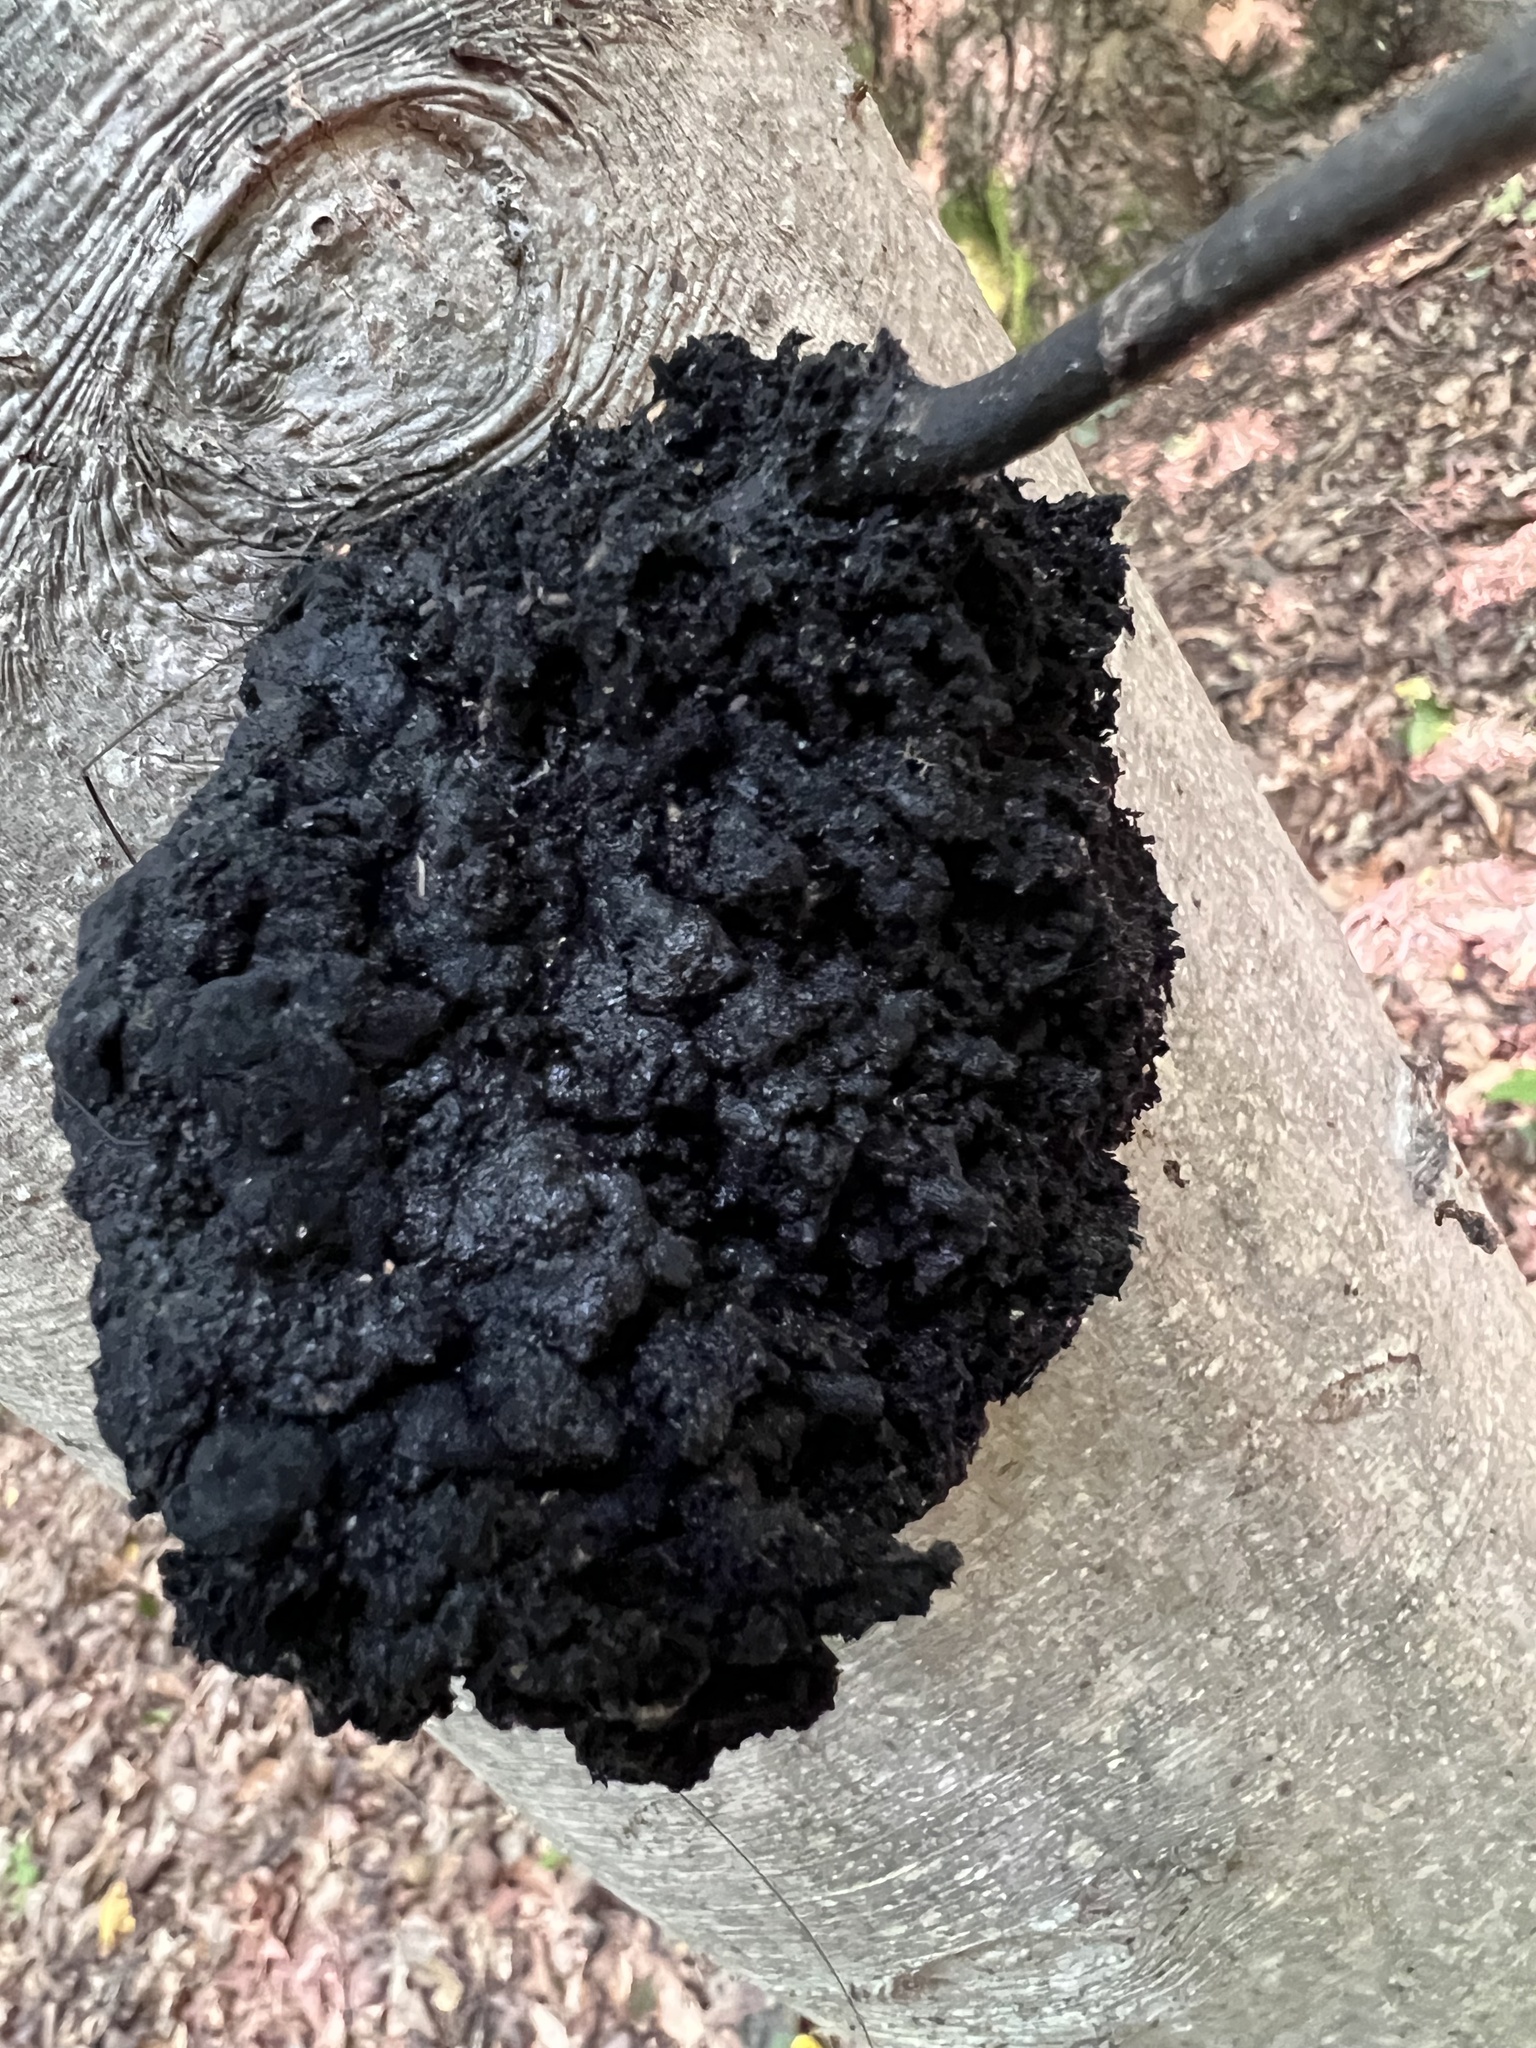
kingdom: Fungi
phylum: Ascomycota
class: Dothideomycetes
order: Capnodiales
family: Capnodiaceae
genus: Scorias
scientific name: Scorias spongiosa
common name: Black sooty mold
